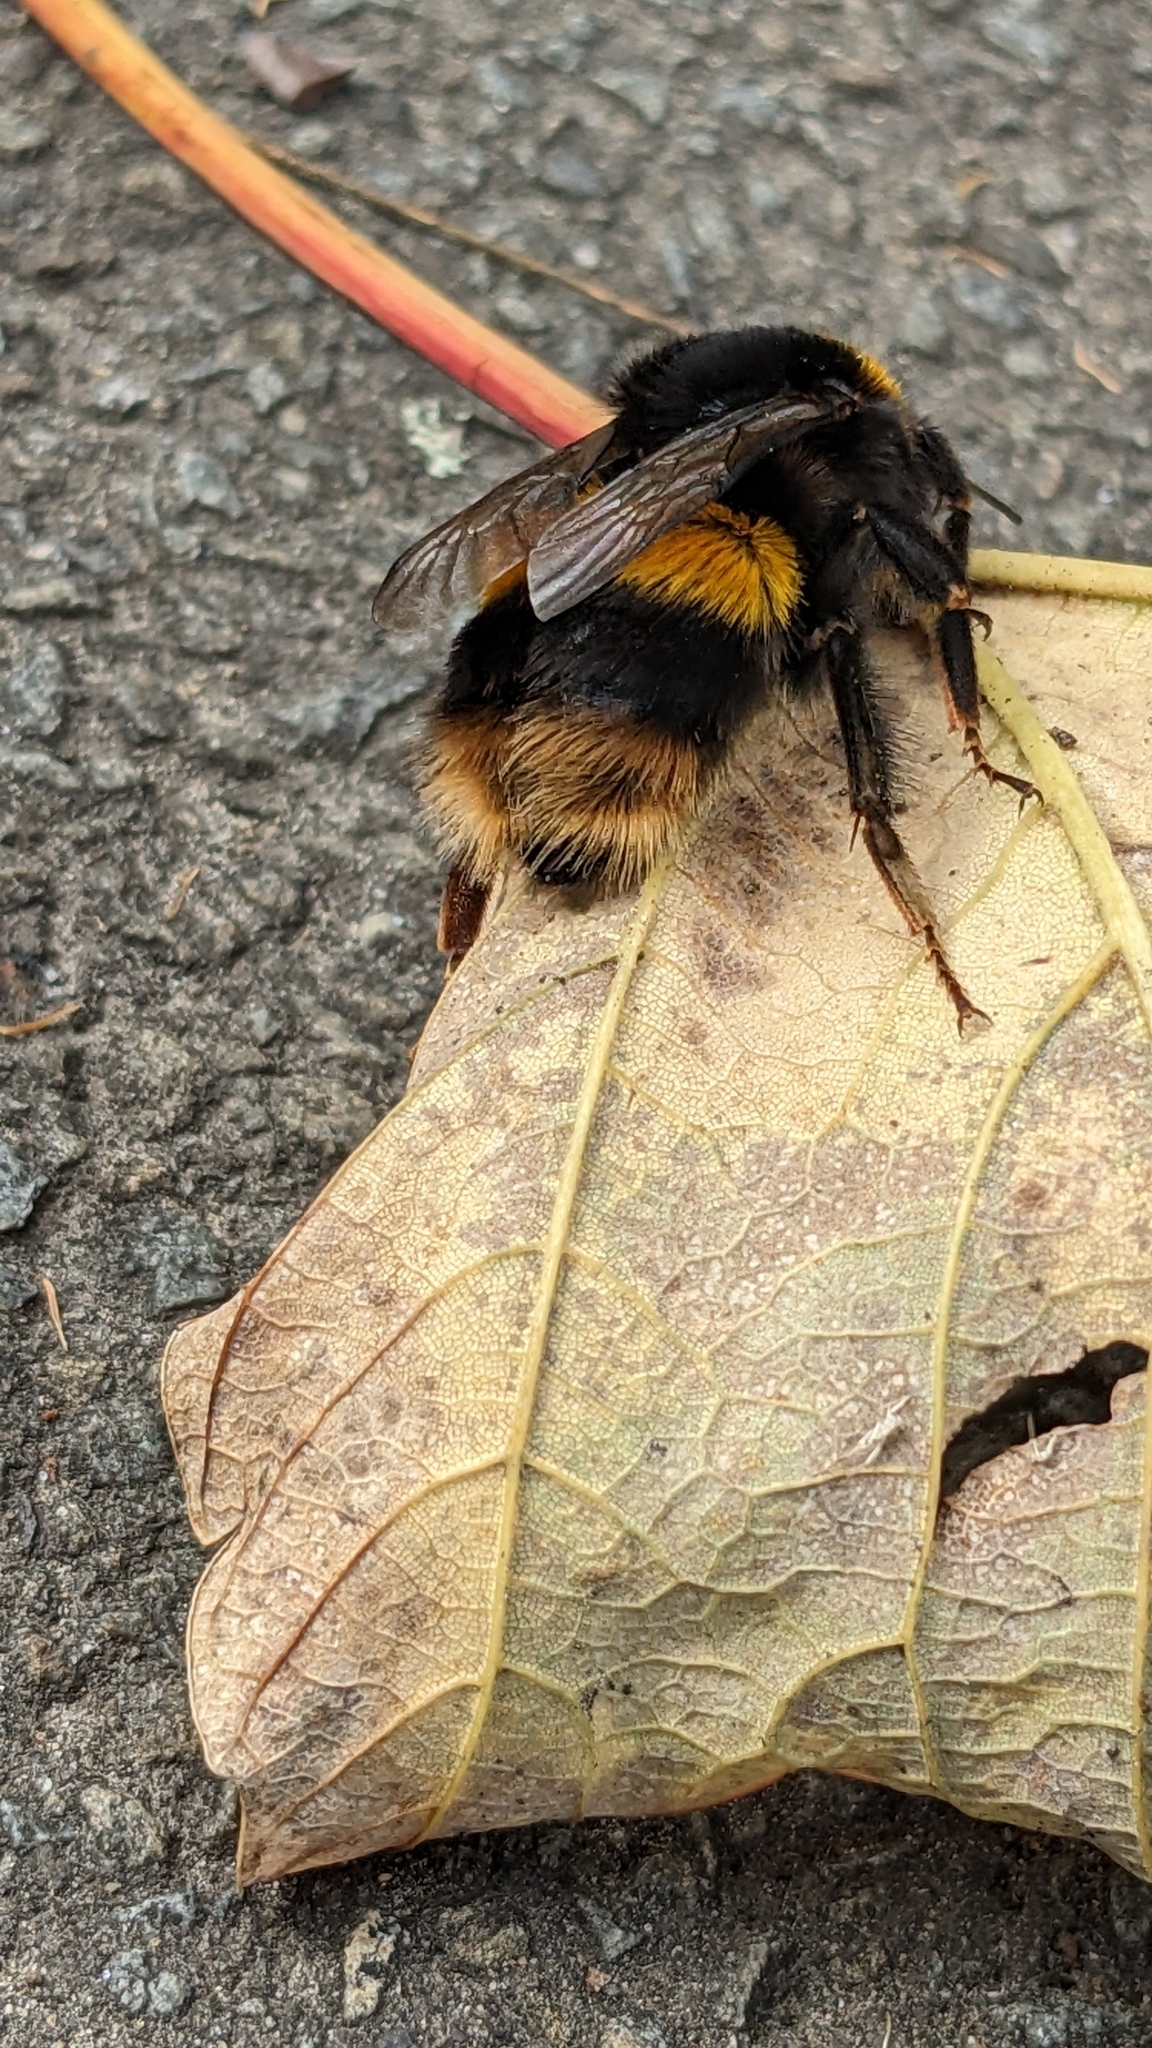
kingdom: Animalia
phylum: Arthropoda
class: Insecta
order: Hymenoptera
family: Apidae
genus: Bombus
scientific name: Bombus terrestris
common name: Buff-tailed bumblebee
